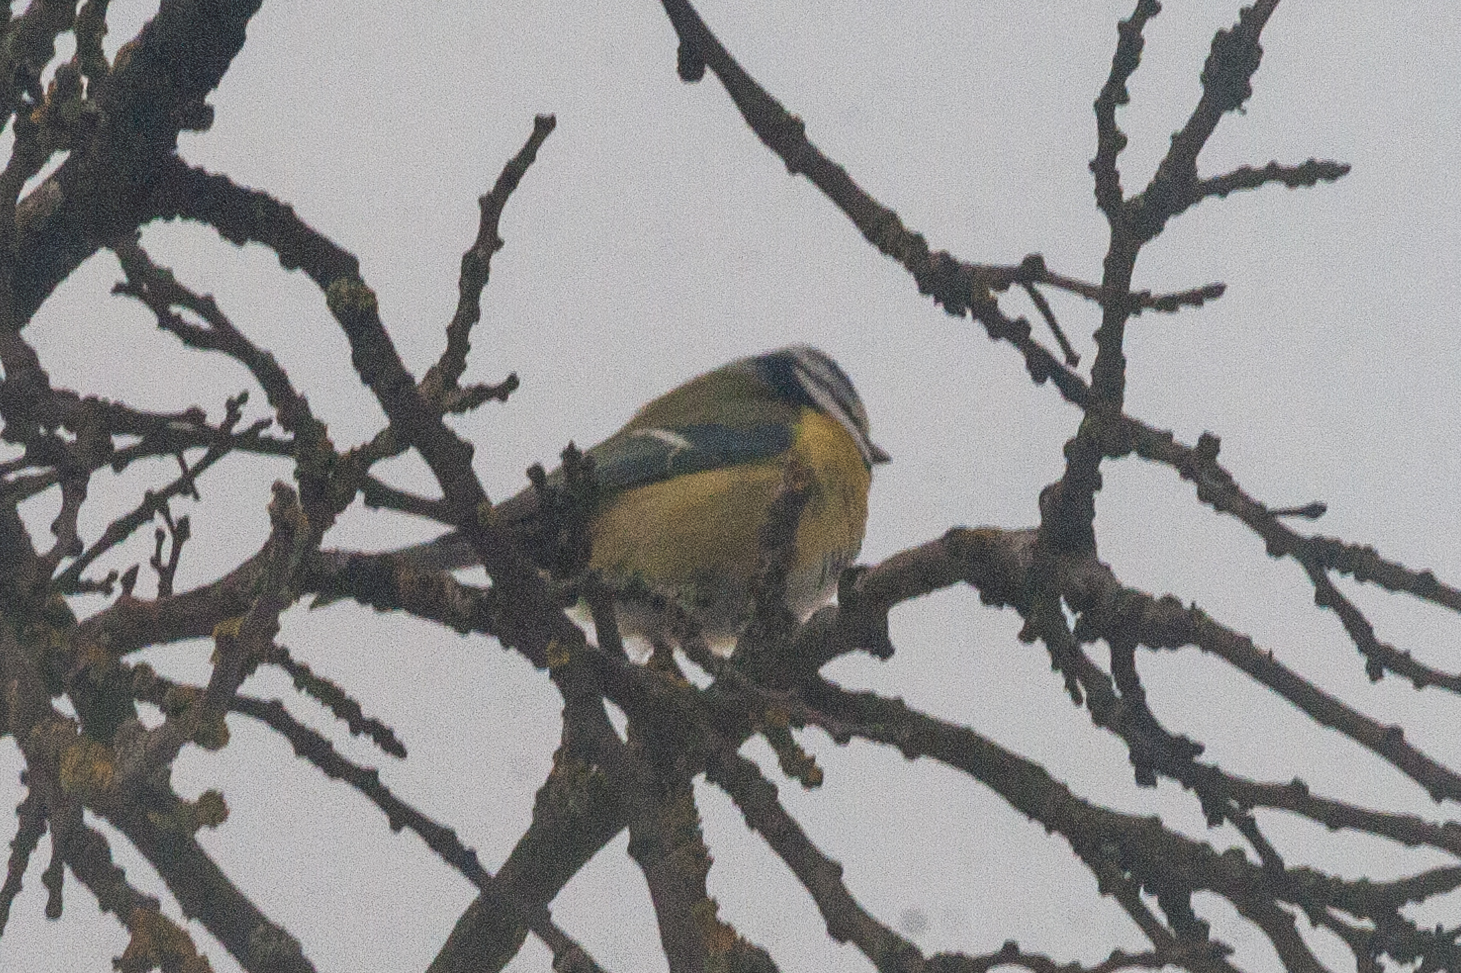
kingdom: Animalia
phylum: Chordata
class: Aves
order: Passeriformes
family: Paridae
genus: Cyanistes
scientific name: Cyanistes caeruleus
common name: Eurasian blue tit
